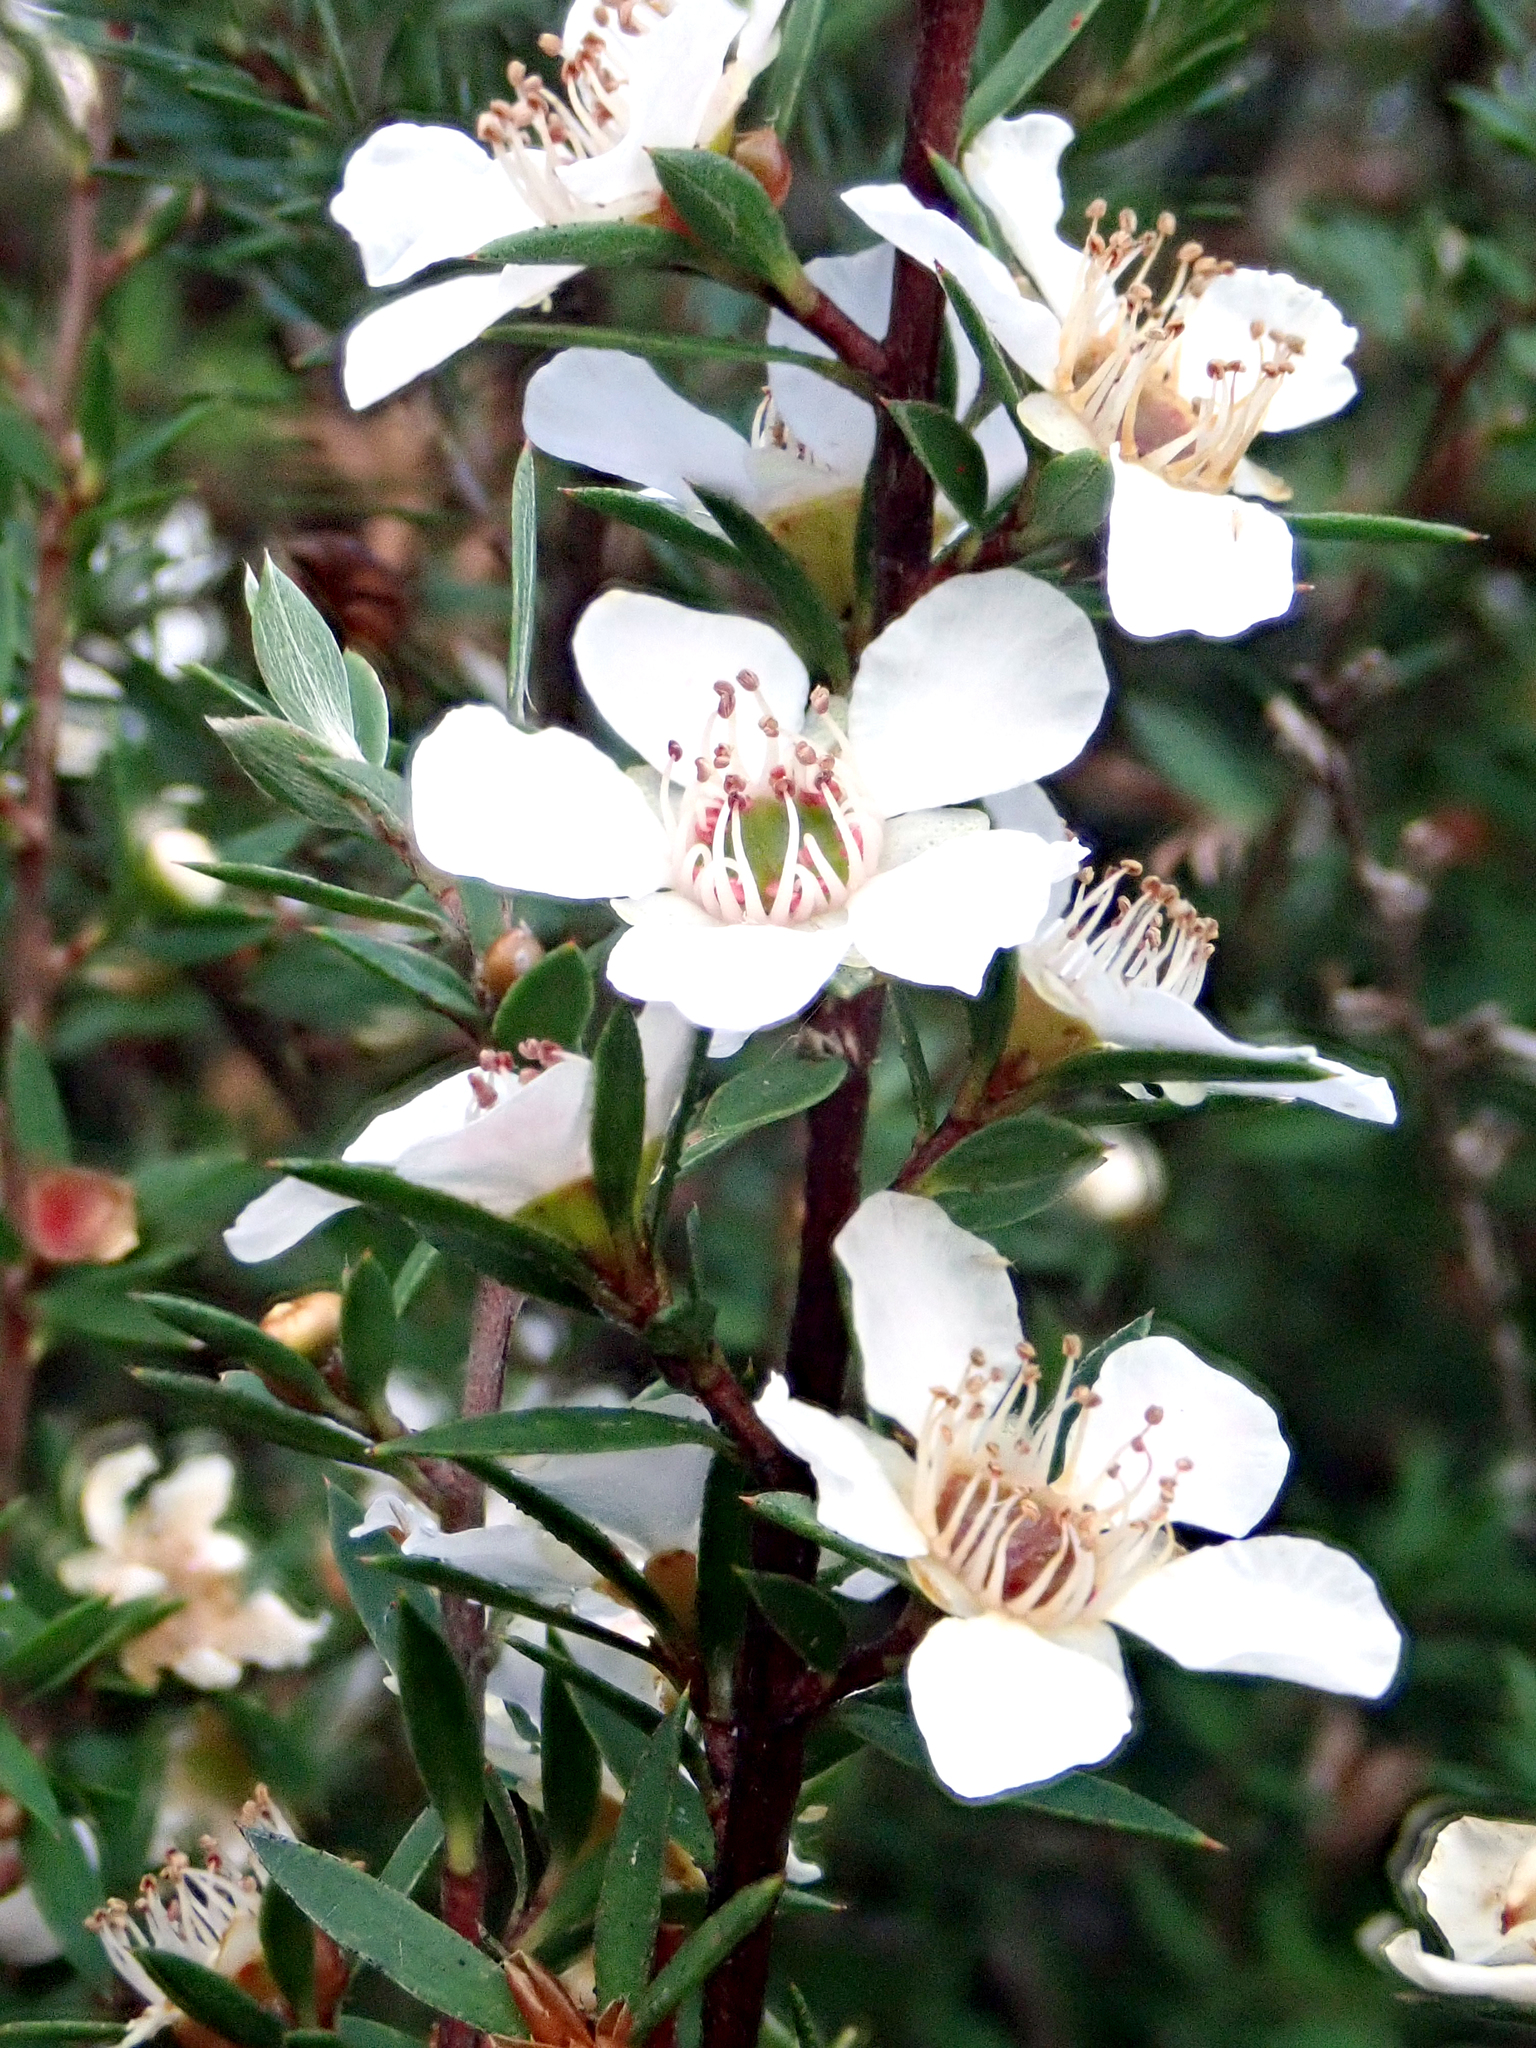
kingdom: Plantae
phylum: Tracheophyta
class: Magnoliopsida
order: Myrtales
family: Myrtaceae
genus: Leptospermum
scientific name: Leptospermum scoparium
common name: Broom tea-tree
